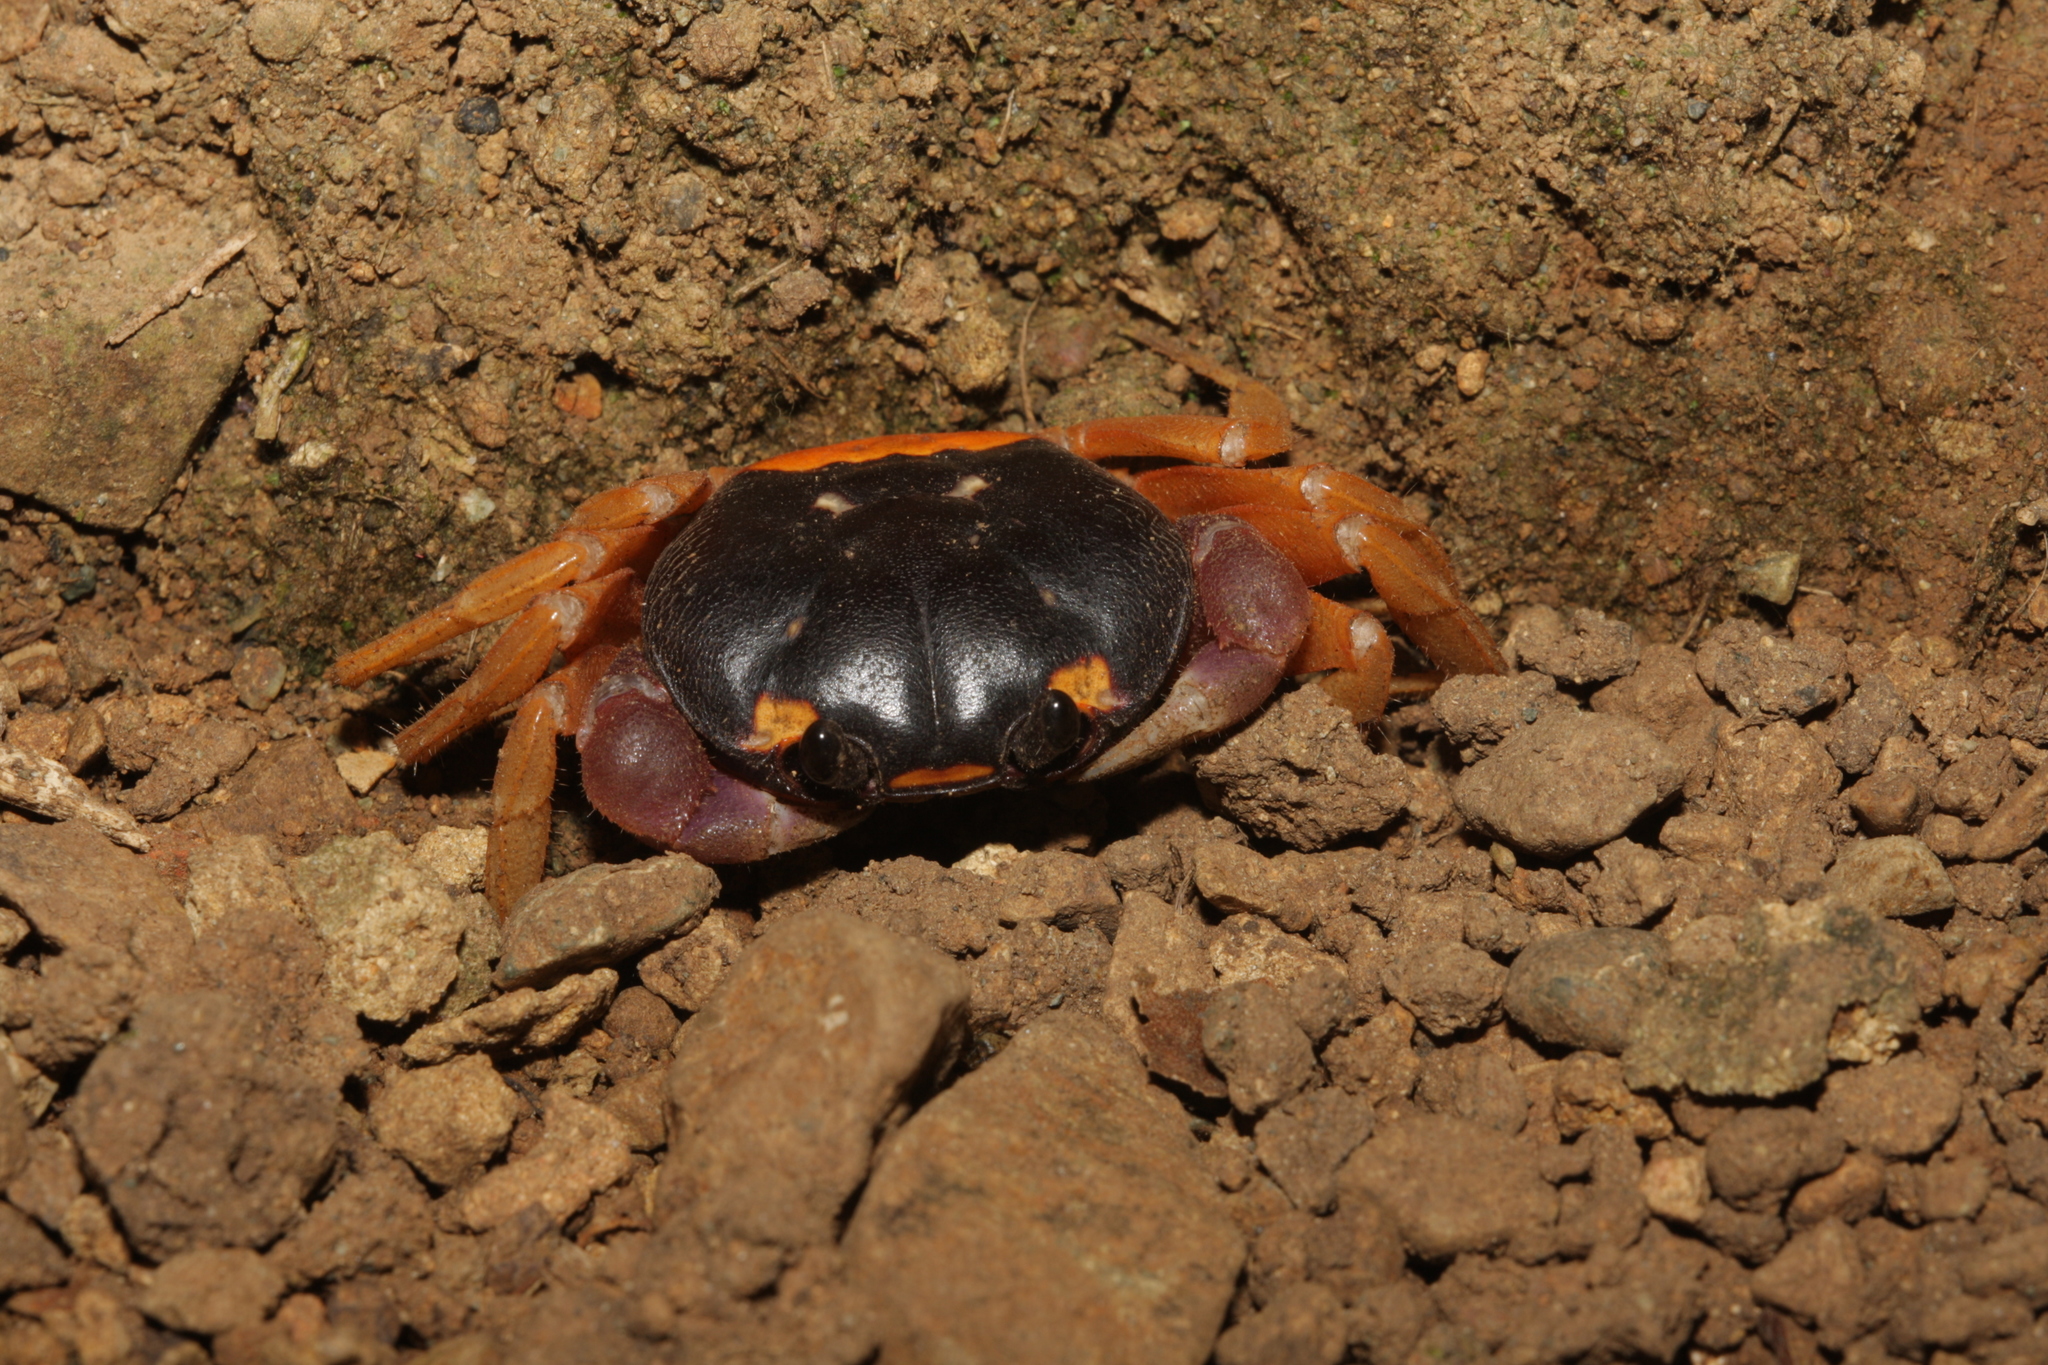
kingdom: Animalia
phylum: Arthropoda
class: Malacostraca
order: Decapoda
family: Gecarcinidae
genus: Gecarcinus
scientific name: Gecarcinus quadratus
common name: Halloween crab
